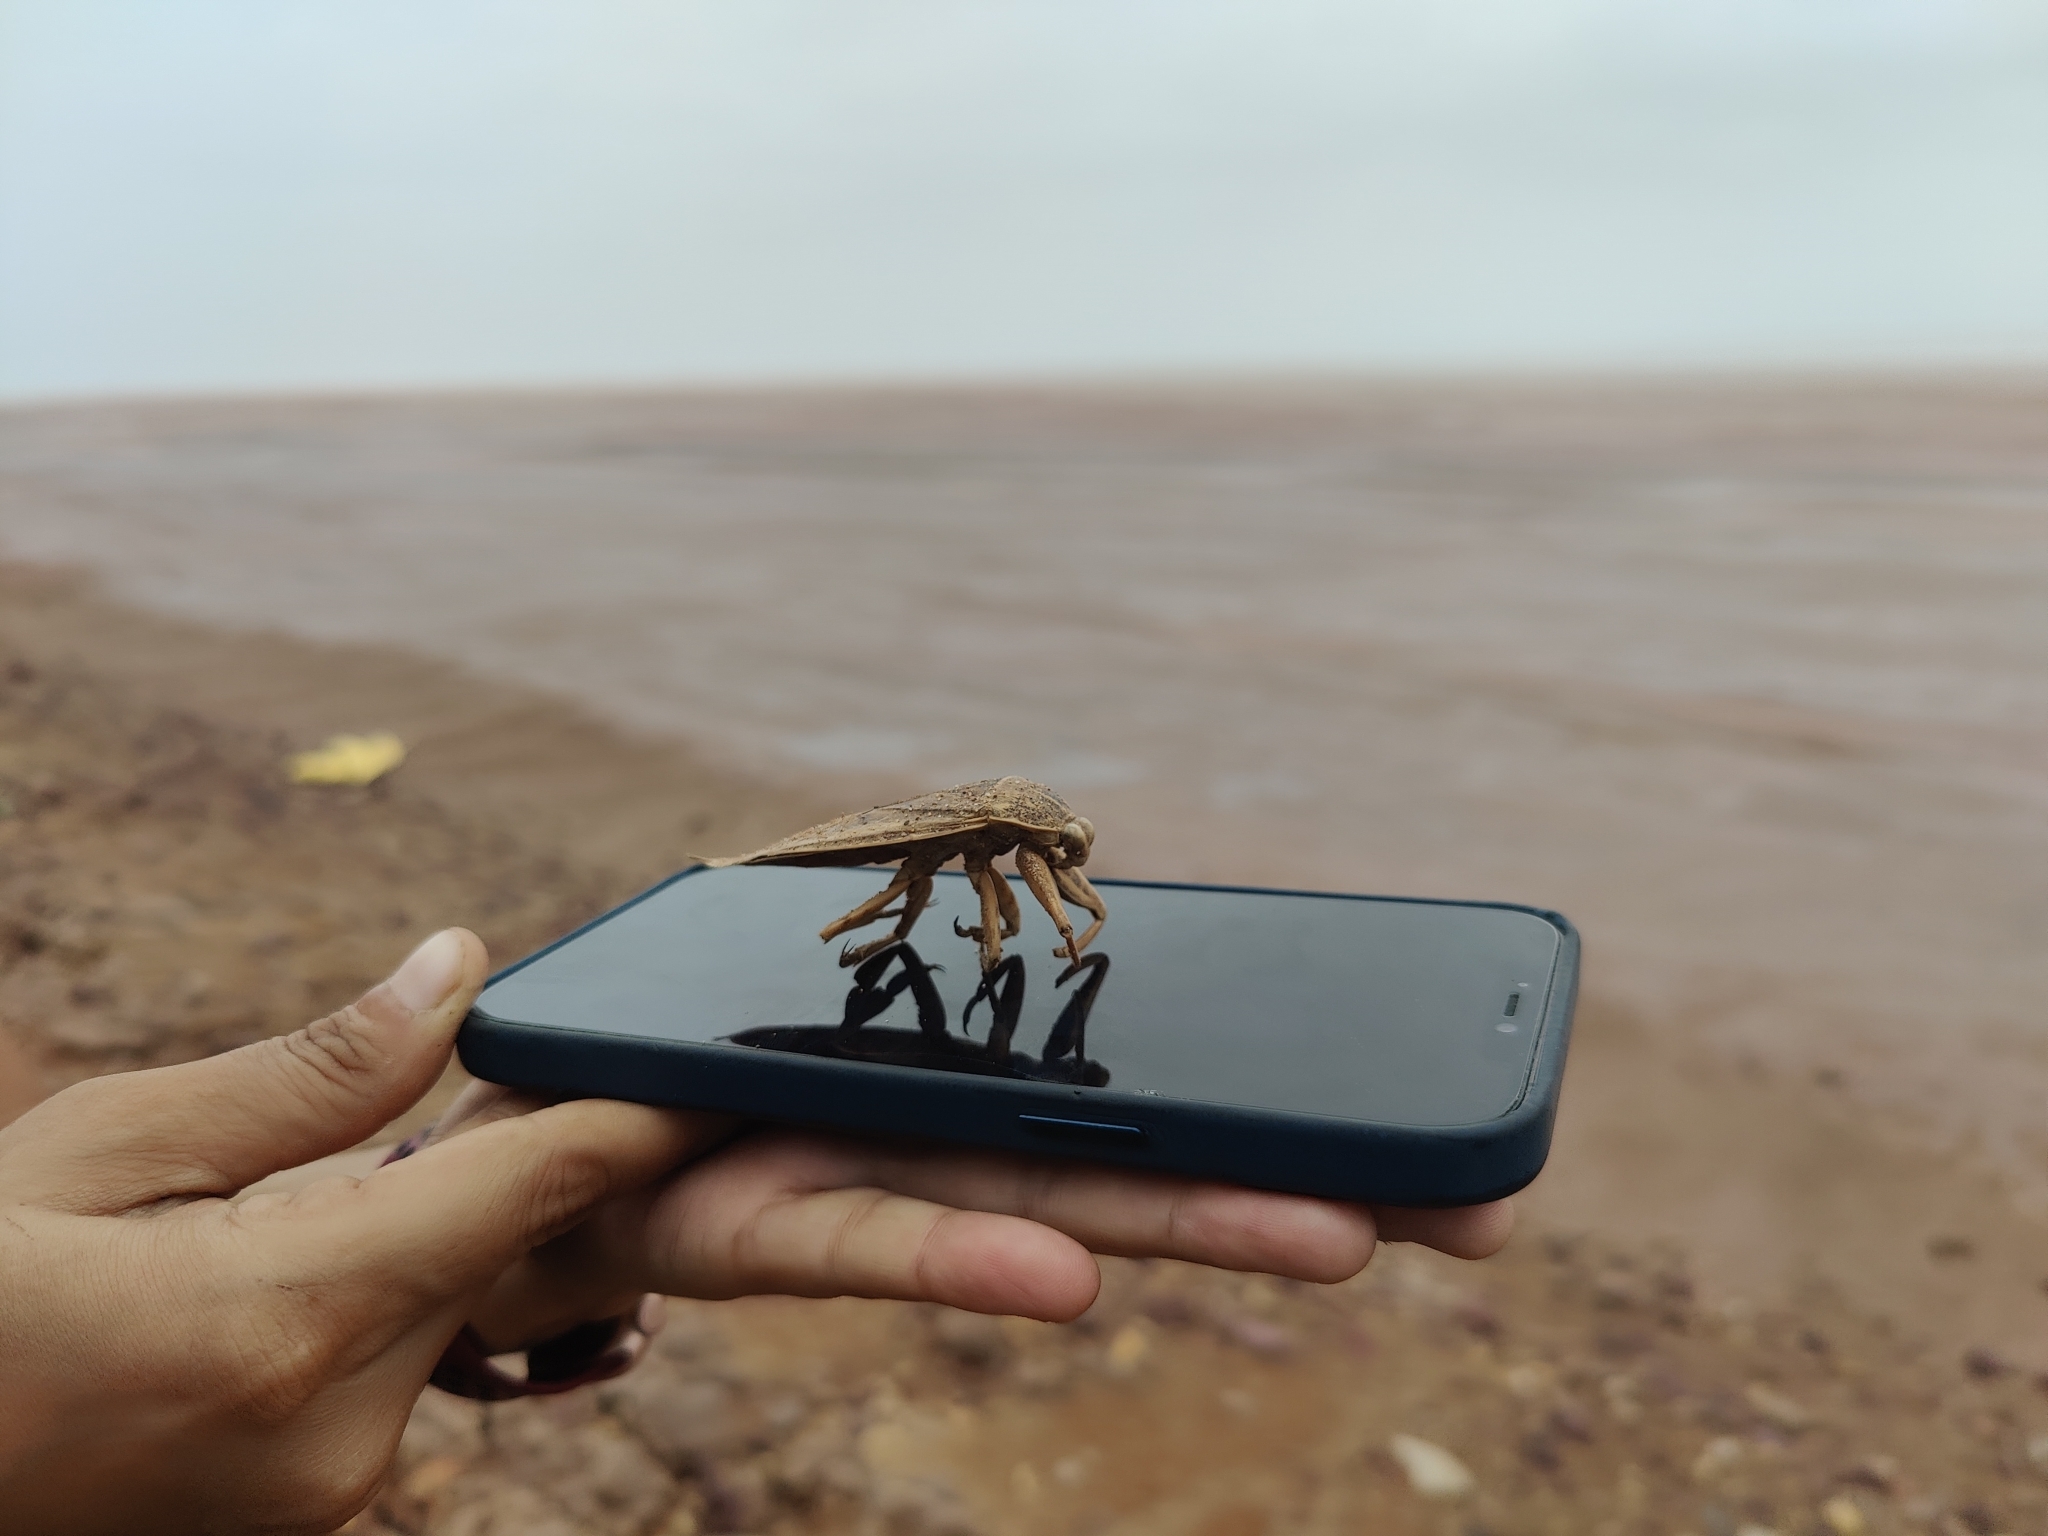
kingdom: Animalia
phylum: Arthropoda
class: Insecta
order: Hemiptera
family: Belostomatidae
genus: Lethocerus
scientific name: Lethocerus
